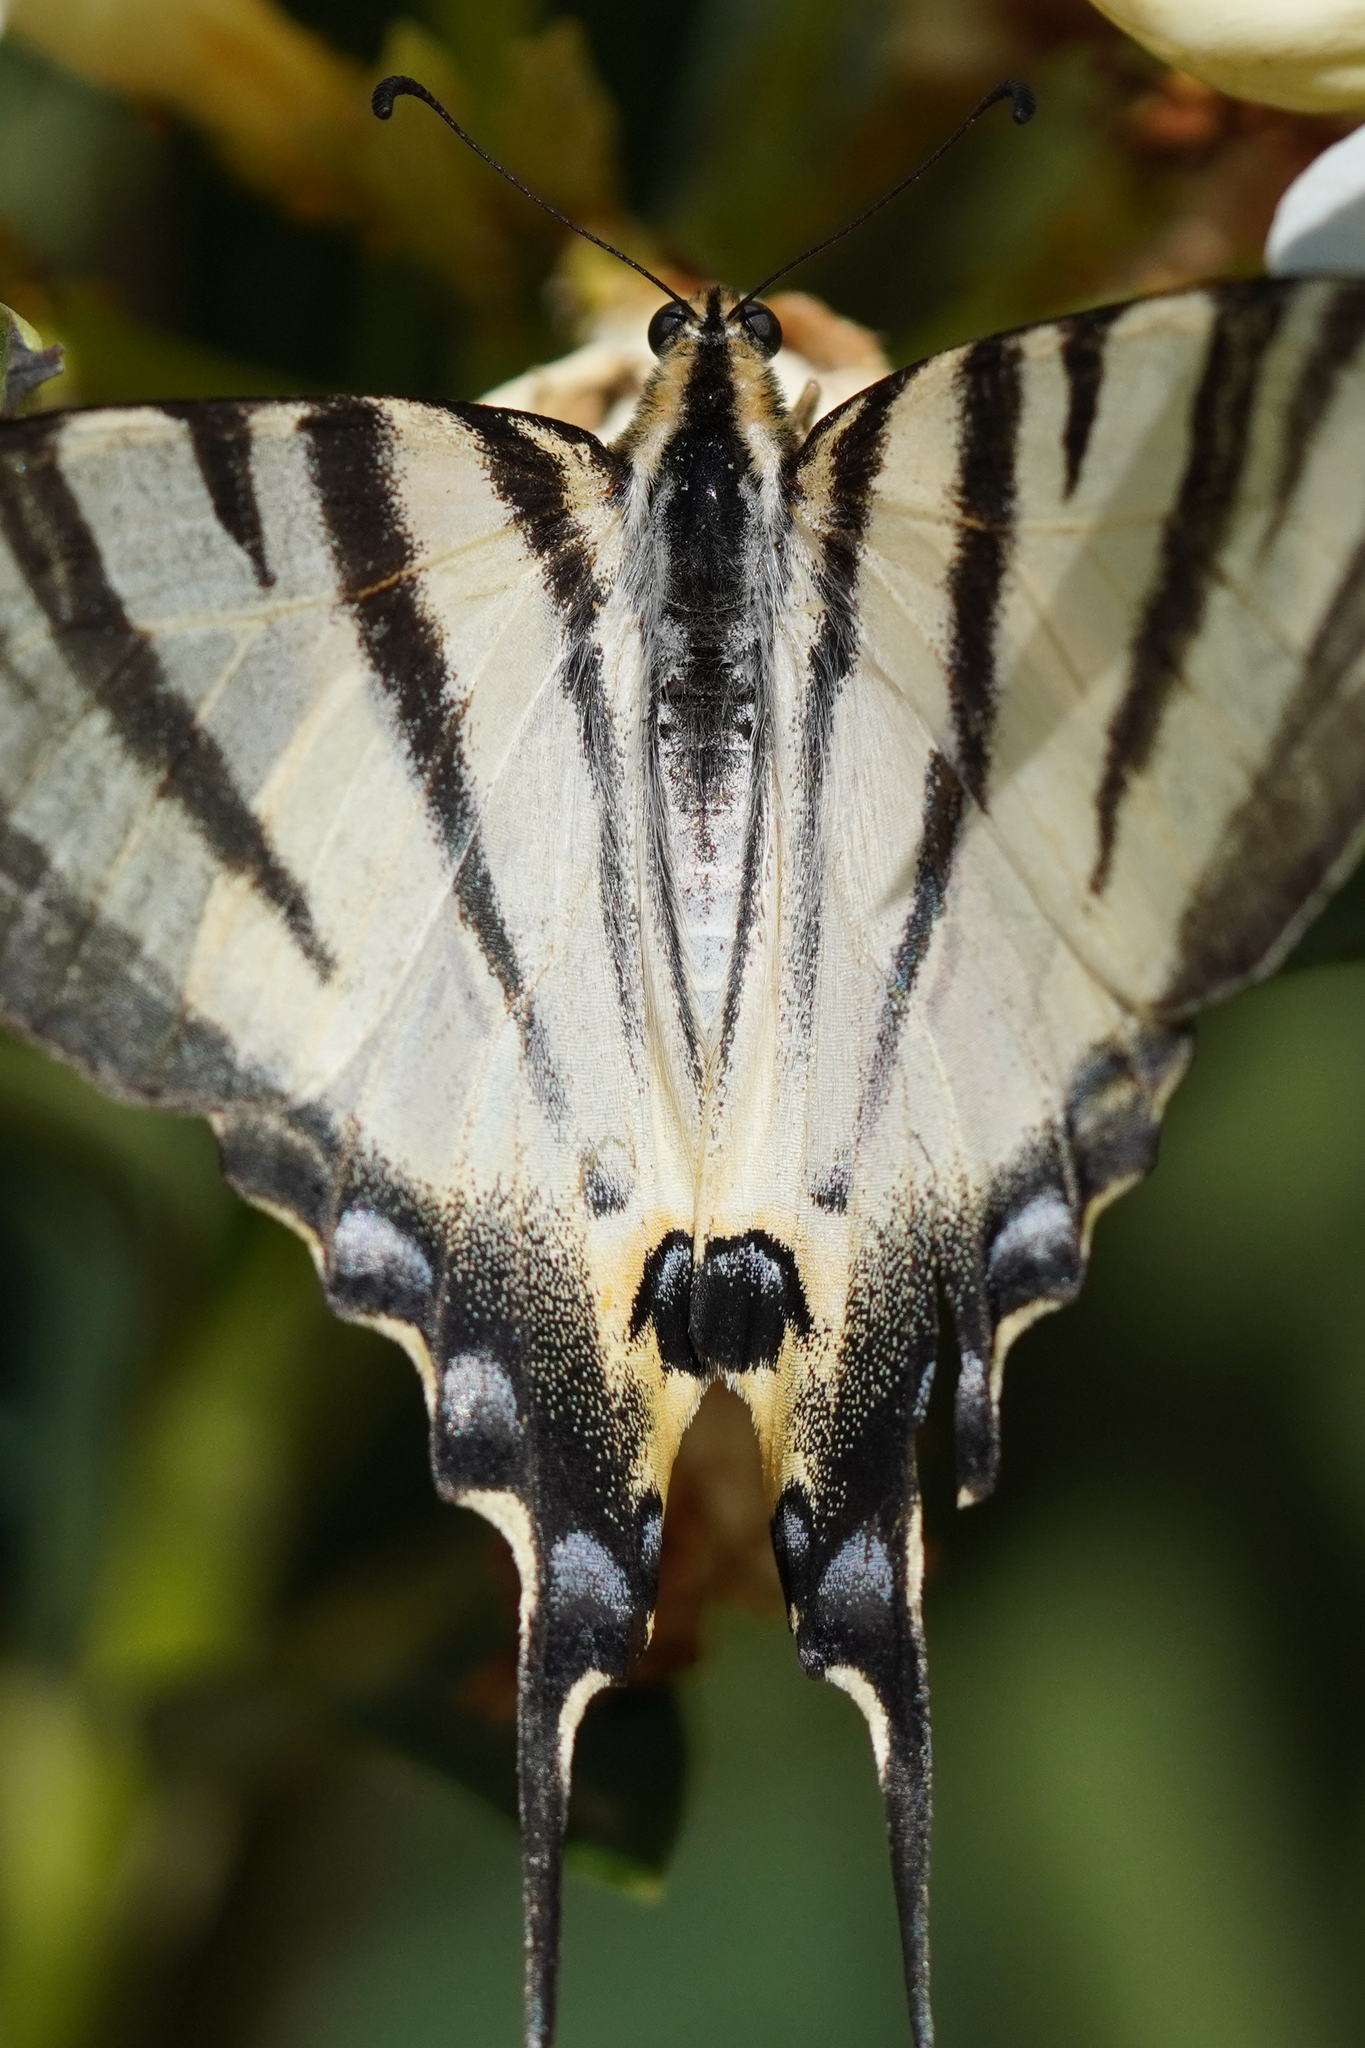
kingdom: Animalia
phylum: Arthropoda
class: Insecta
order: Lepidoptera
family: Papilionidae
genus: Iphiclides
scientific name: Iphiclides podalirius
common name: Scarce swallowtail
